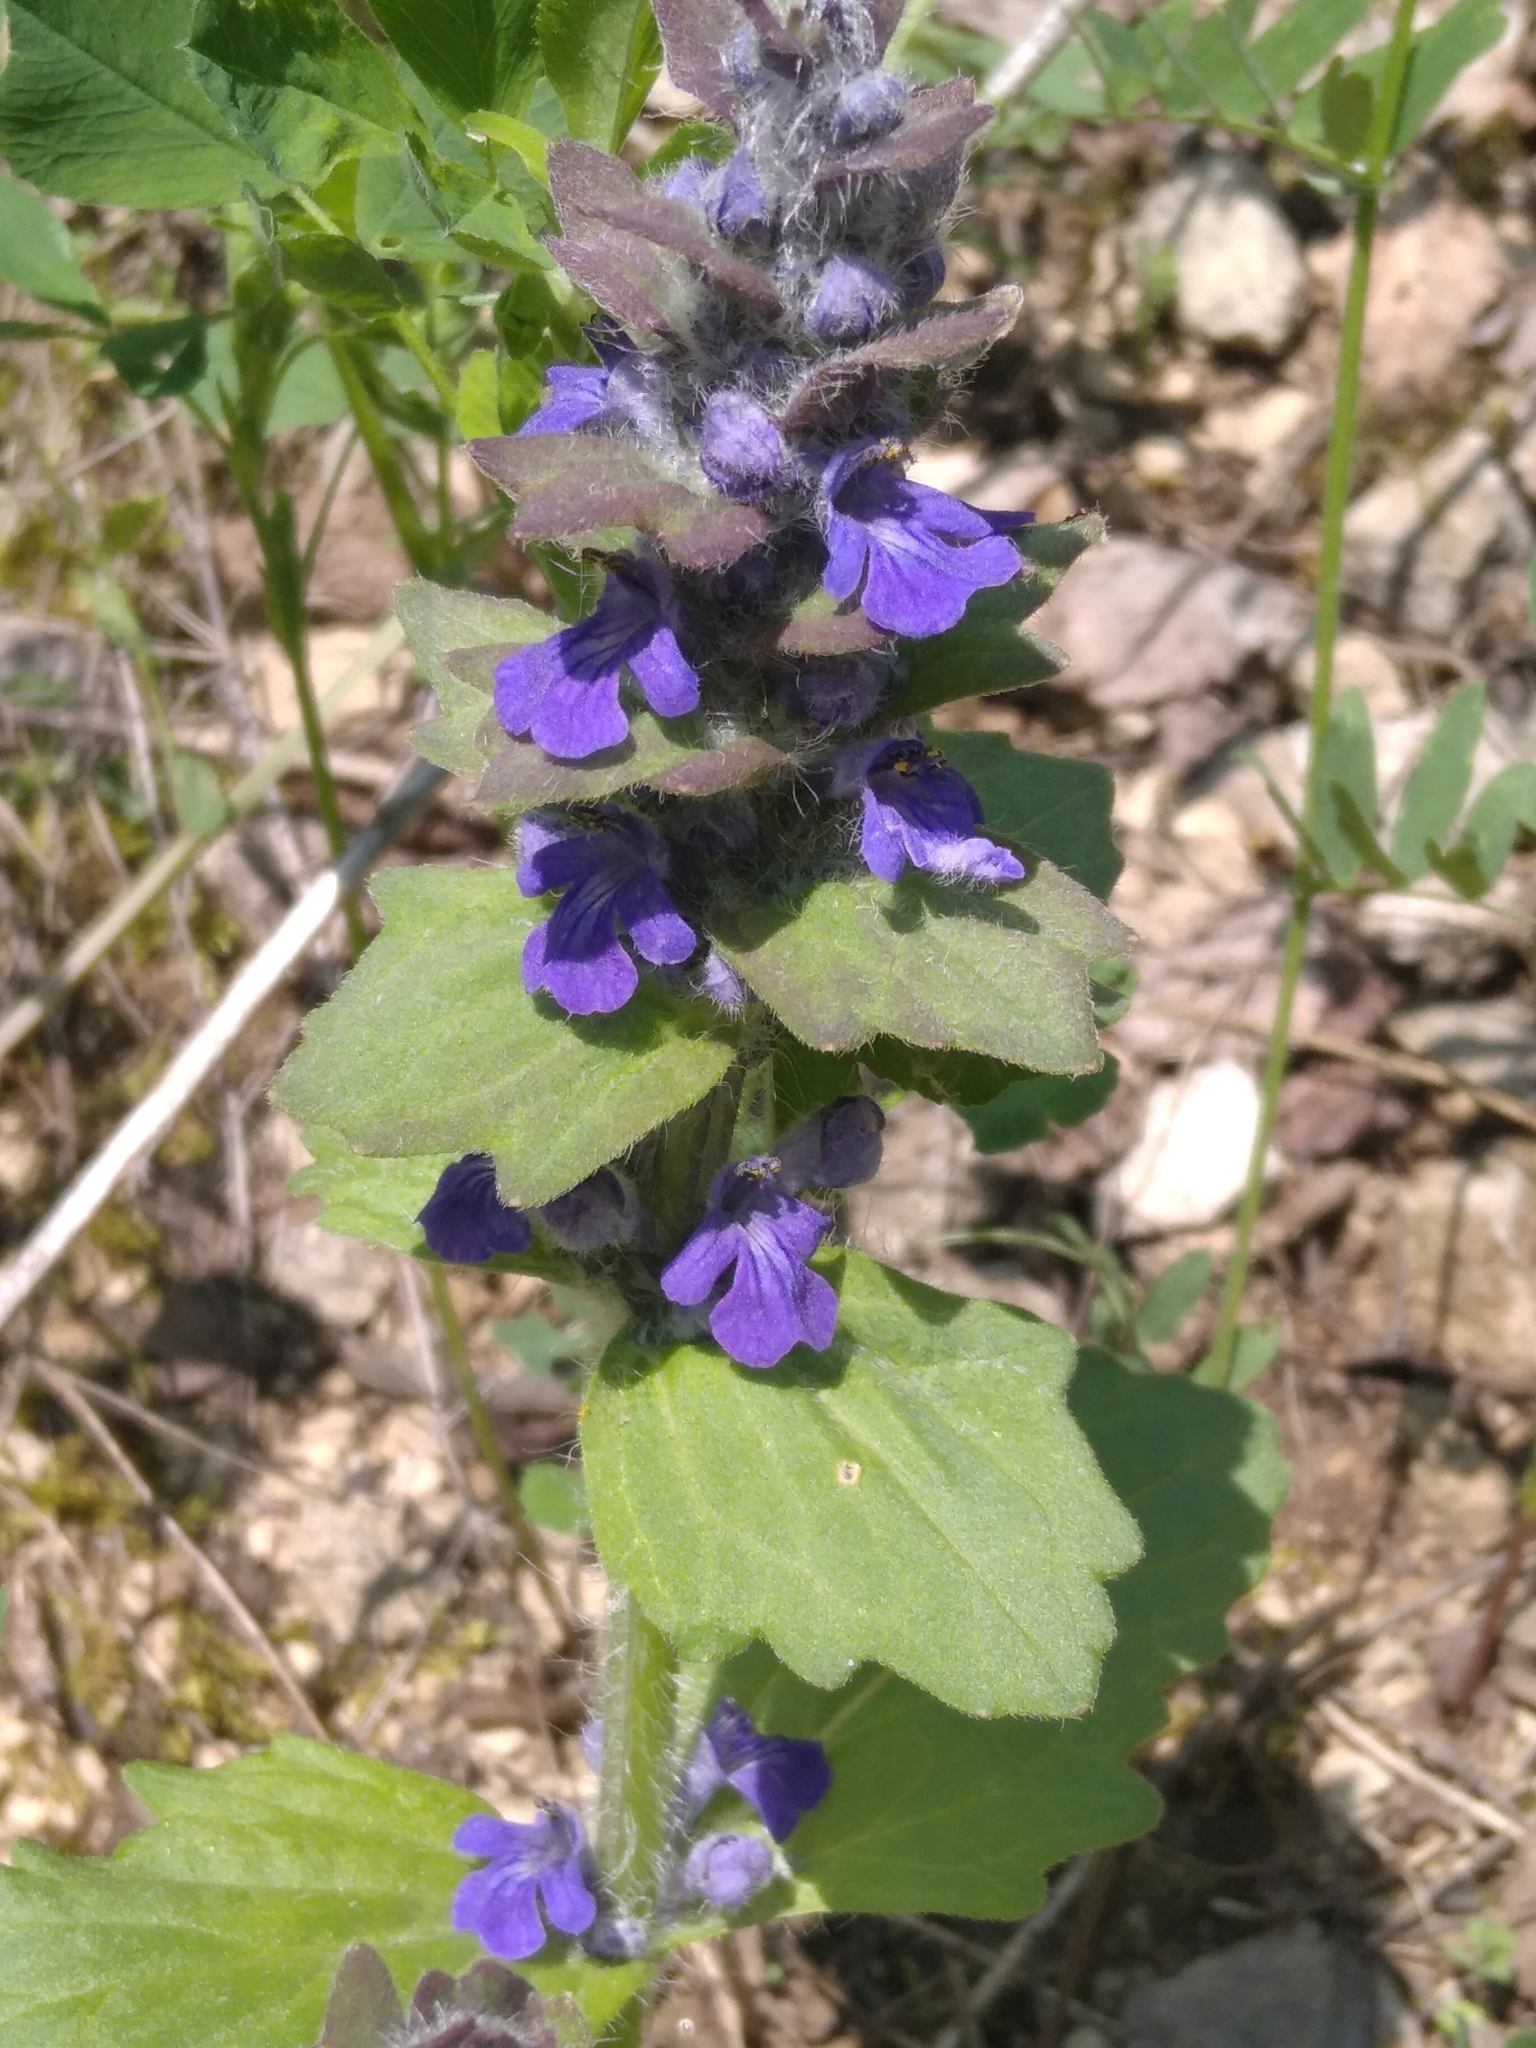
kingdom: Plantae
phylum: Tracheophyta
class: Magnoliopsida
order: Lamiales
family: Lamiaceae
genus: Ajuga
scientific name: Ajuga genevensis
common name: Blue bugle
